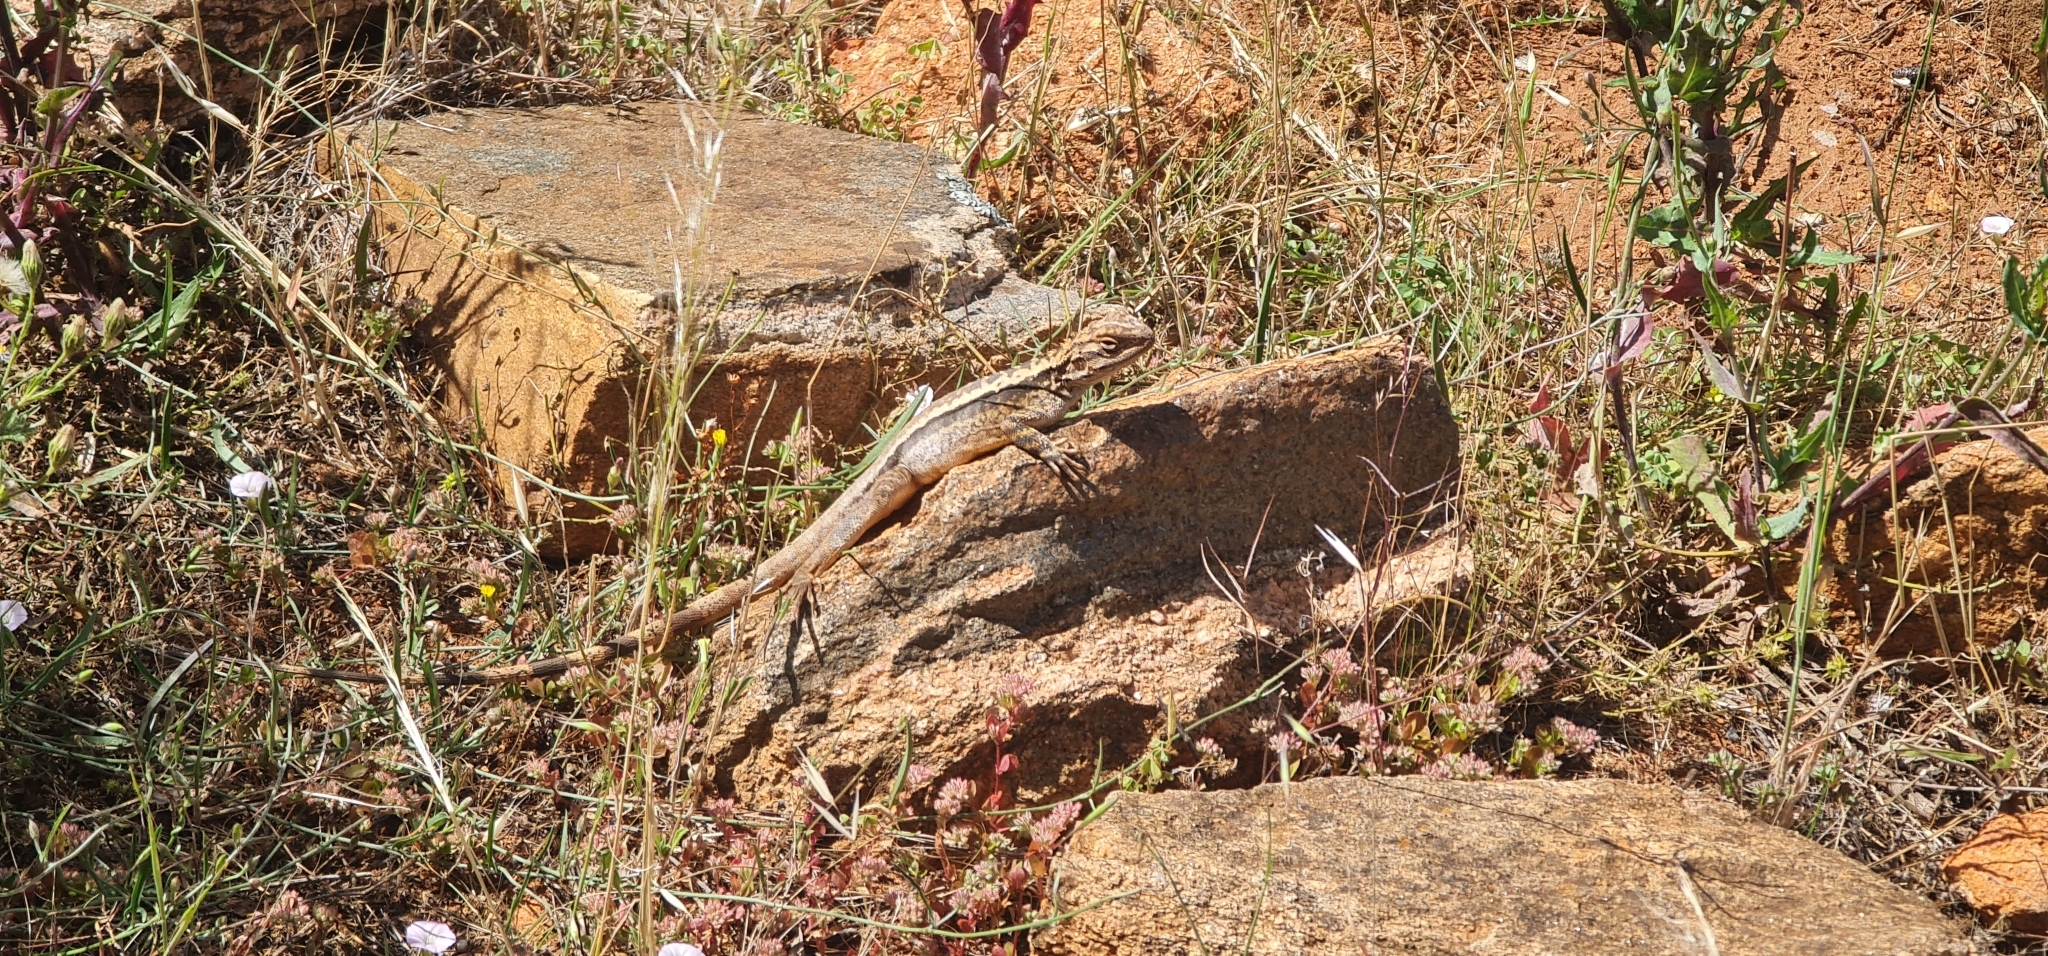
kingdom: Animalia
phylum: Chordata
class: Squamata
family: Agamidae
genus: Ctenophorus
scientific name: Ctenophorus cristatus
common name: Crested dragon
